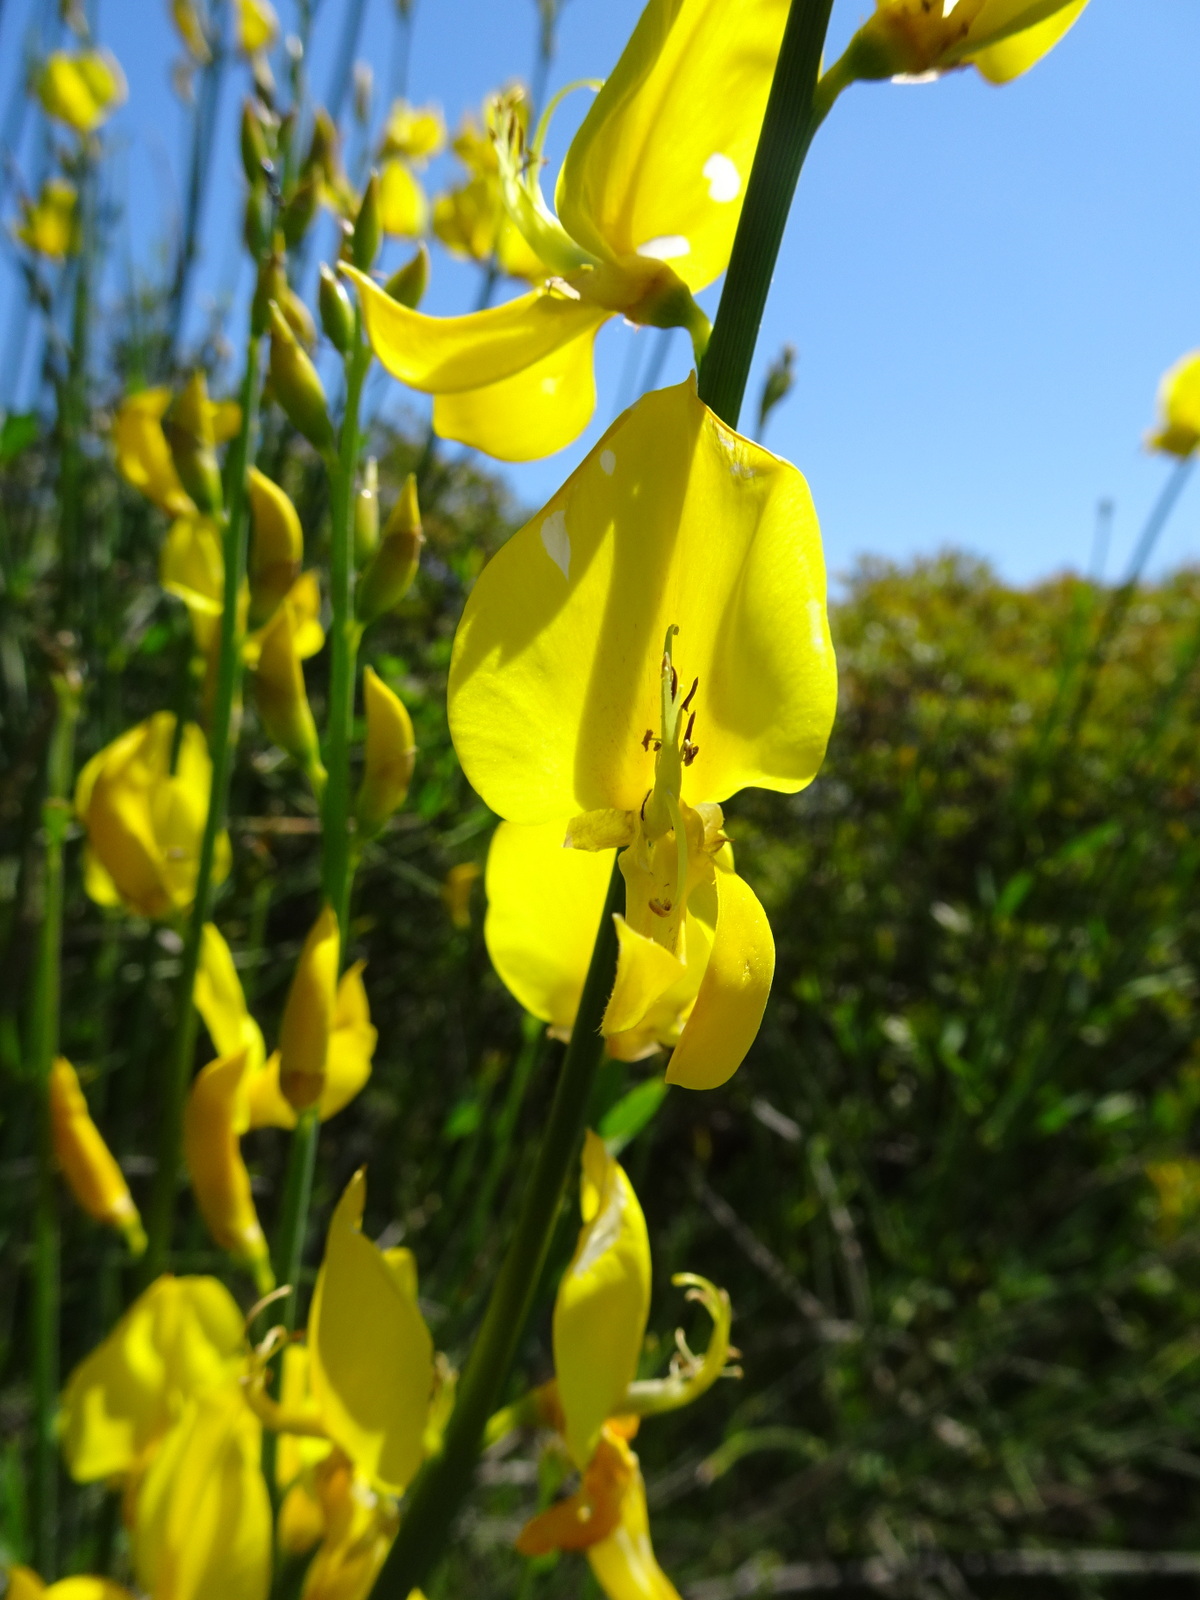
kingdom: Plantae
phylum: Tracheophyta
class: Magnoliopsida
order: Fabales
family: Fabaceae
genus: Spartium
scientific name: Spartium junceum
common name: Spanish broom
